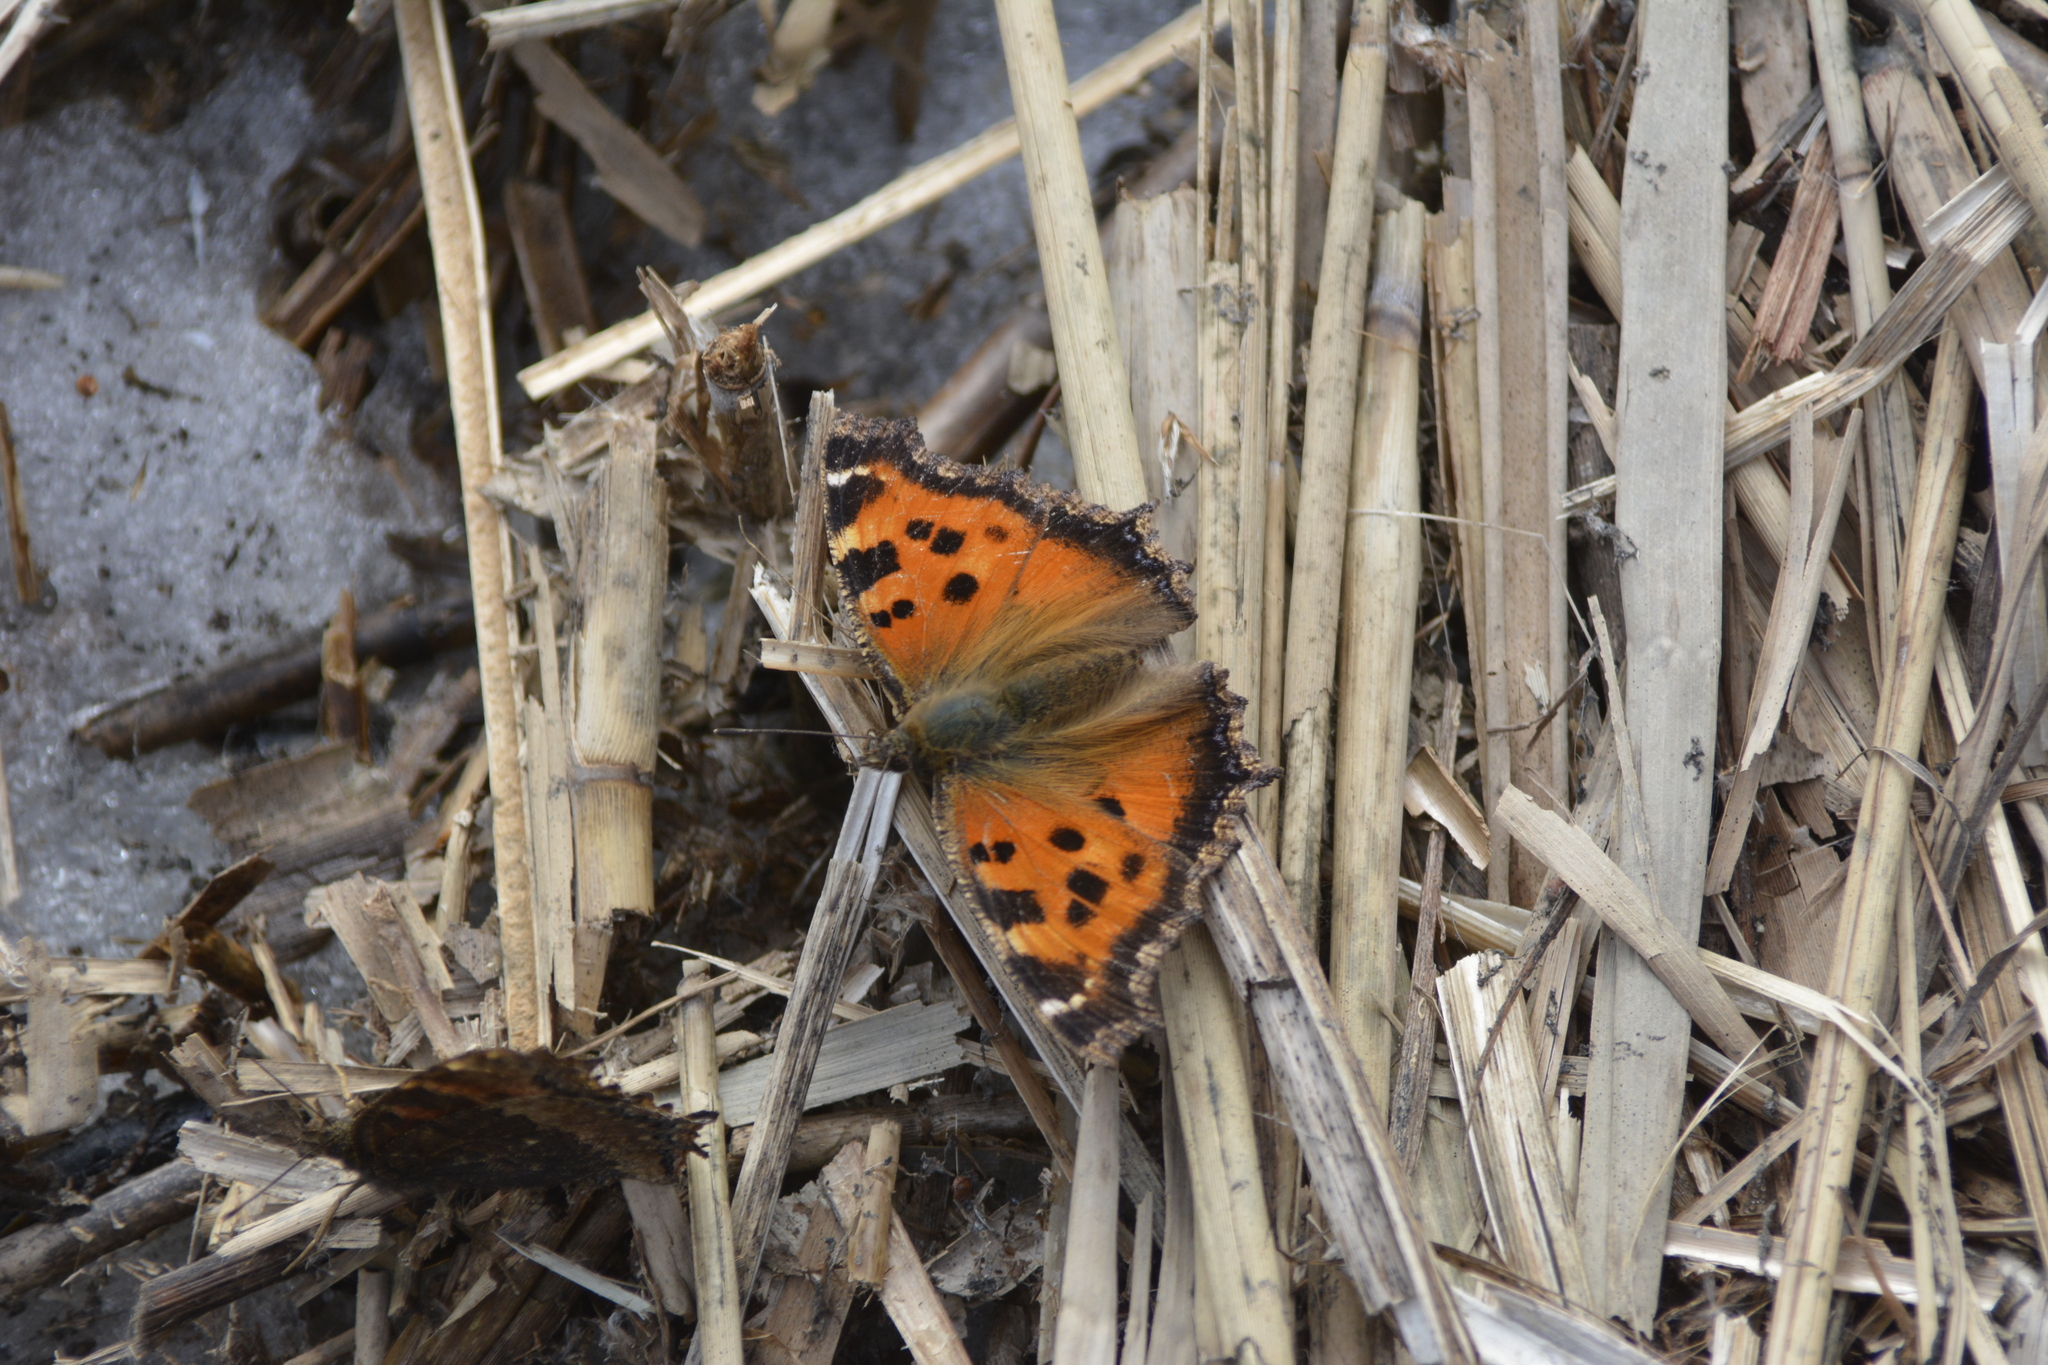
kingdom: Animalia
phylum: Arthropoda
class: Insecta
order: Lepidoptera
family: Nymphalidae
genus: Nymphalis
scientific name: Nymphalis xanthomelas
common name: Scarce tortoiseshell
